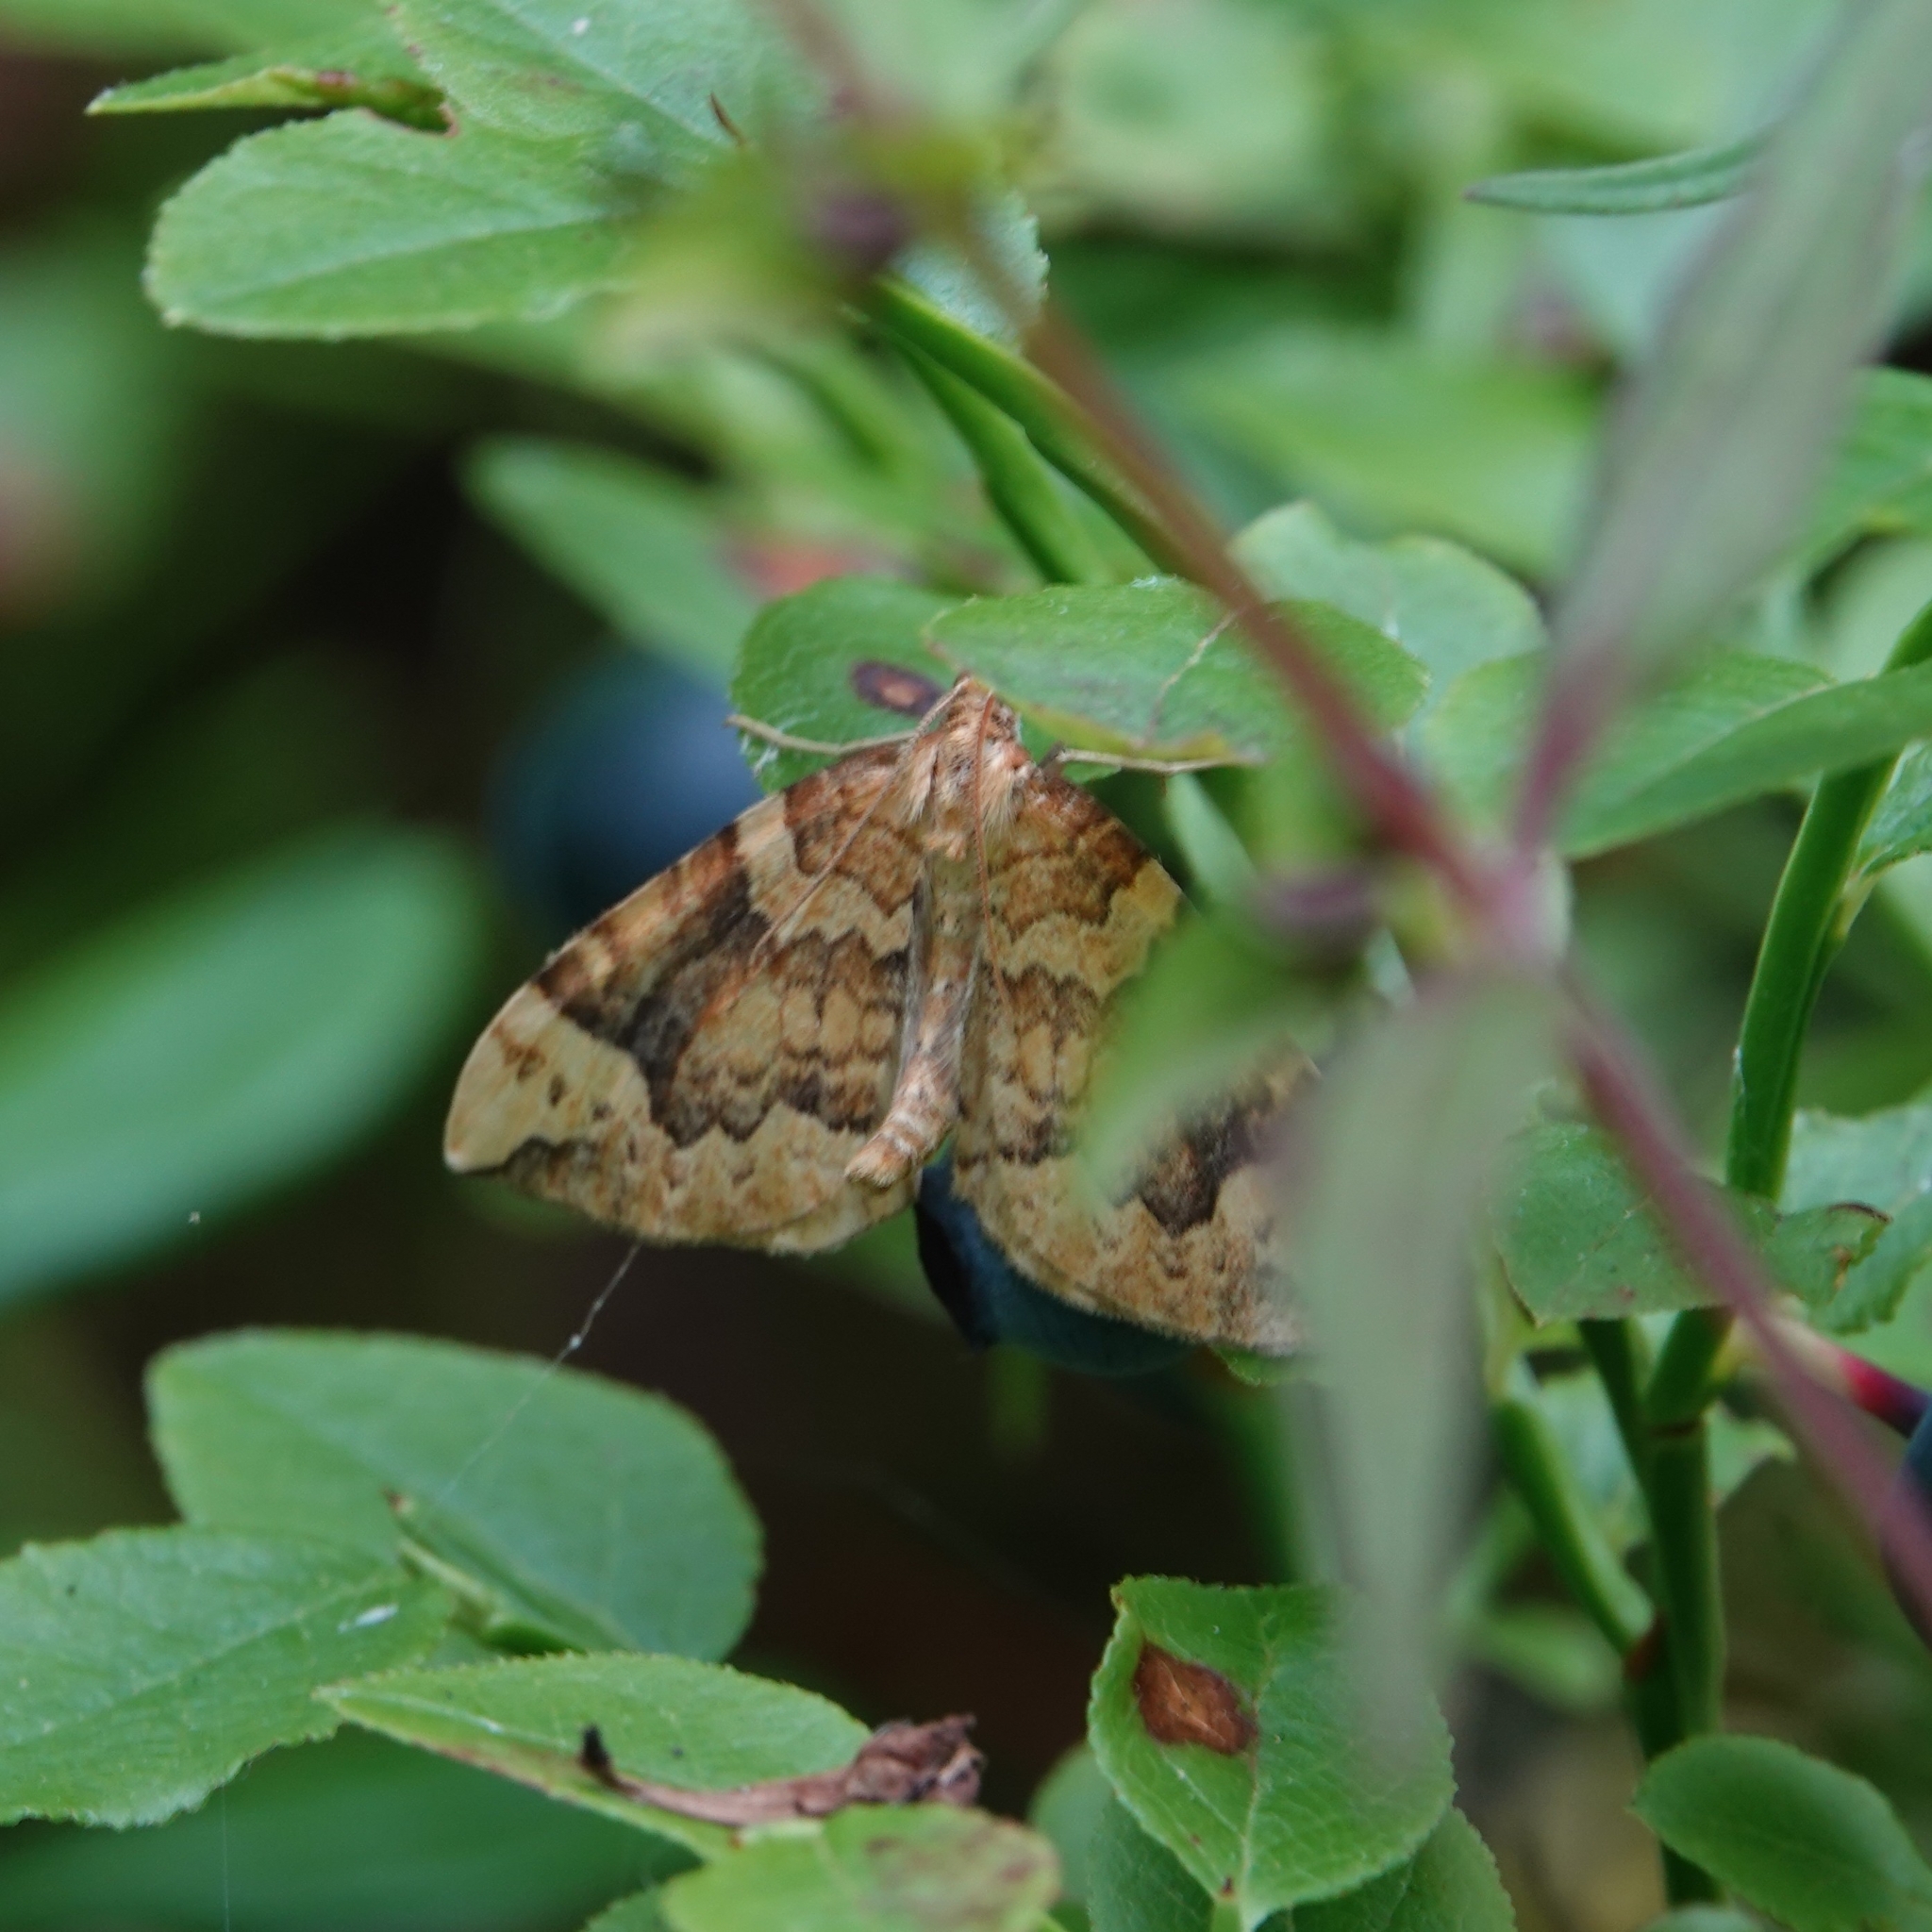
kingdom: Animalia
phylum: Arthropoda
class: Insecta
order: Lepidoptera
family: Geometridae
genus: Eulithis
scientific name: Eulithis populata
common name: Northern spinach
